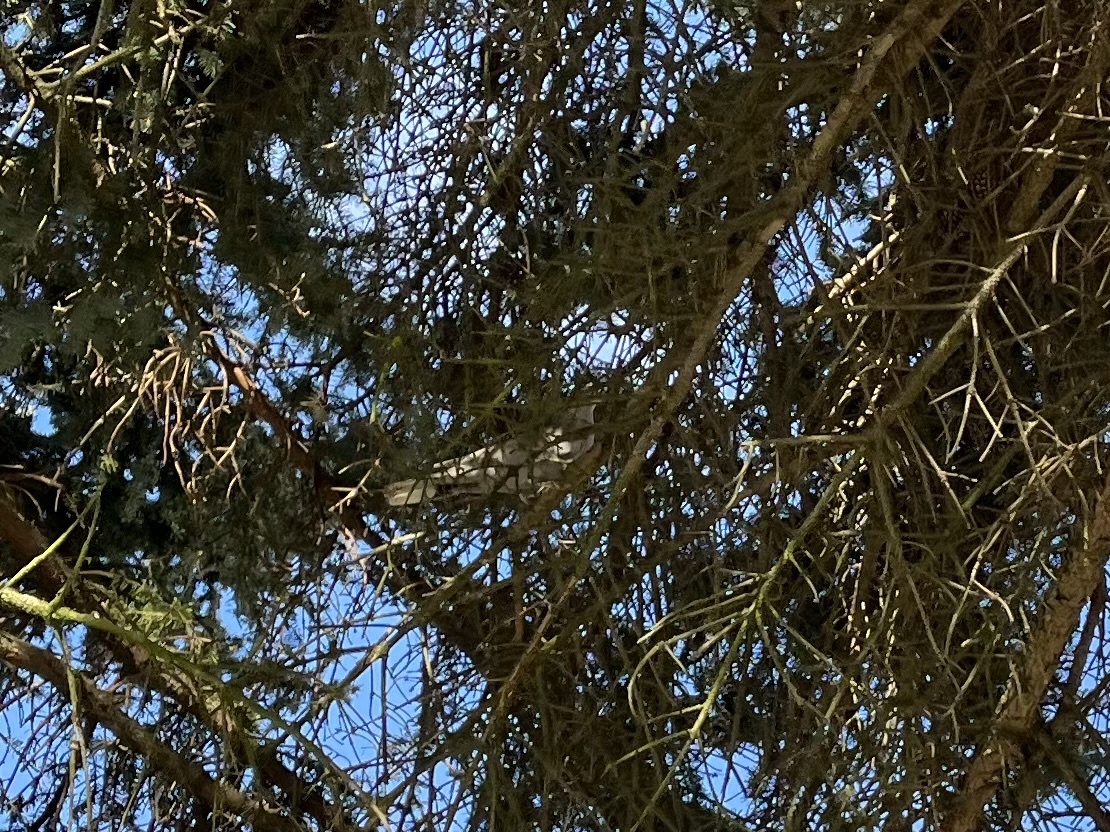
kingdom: Animalia
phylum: Chordata
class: Aves
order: Columbiformes
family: Columbidae
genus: Streptopelia
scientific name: Streptopelia decaocto
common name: Eurasian collared dove
